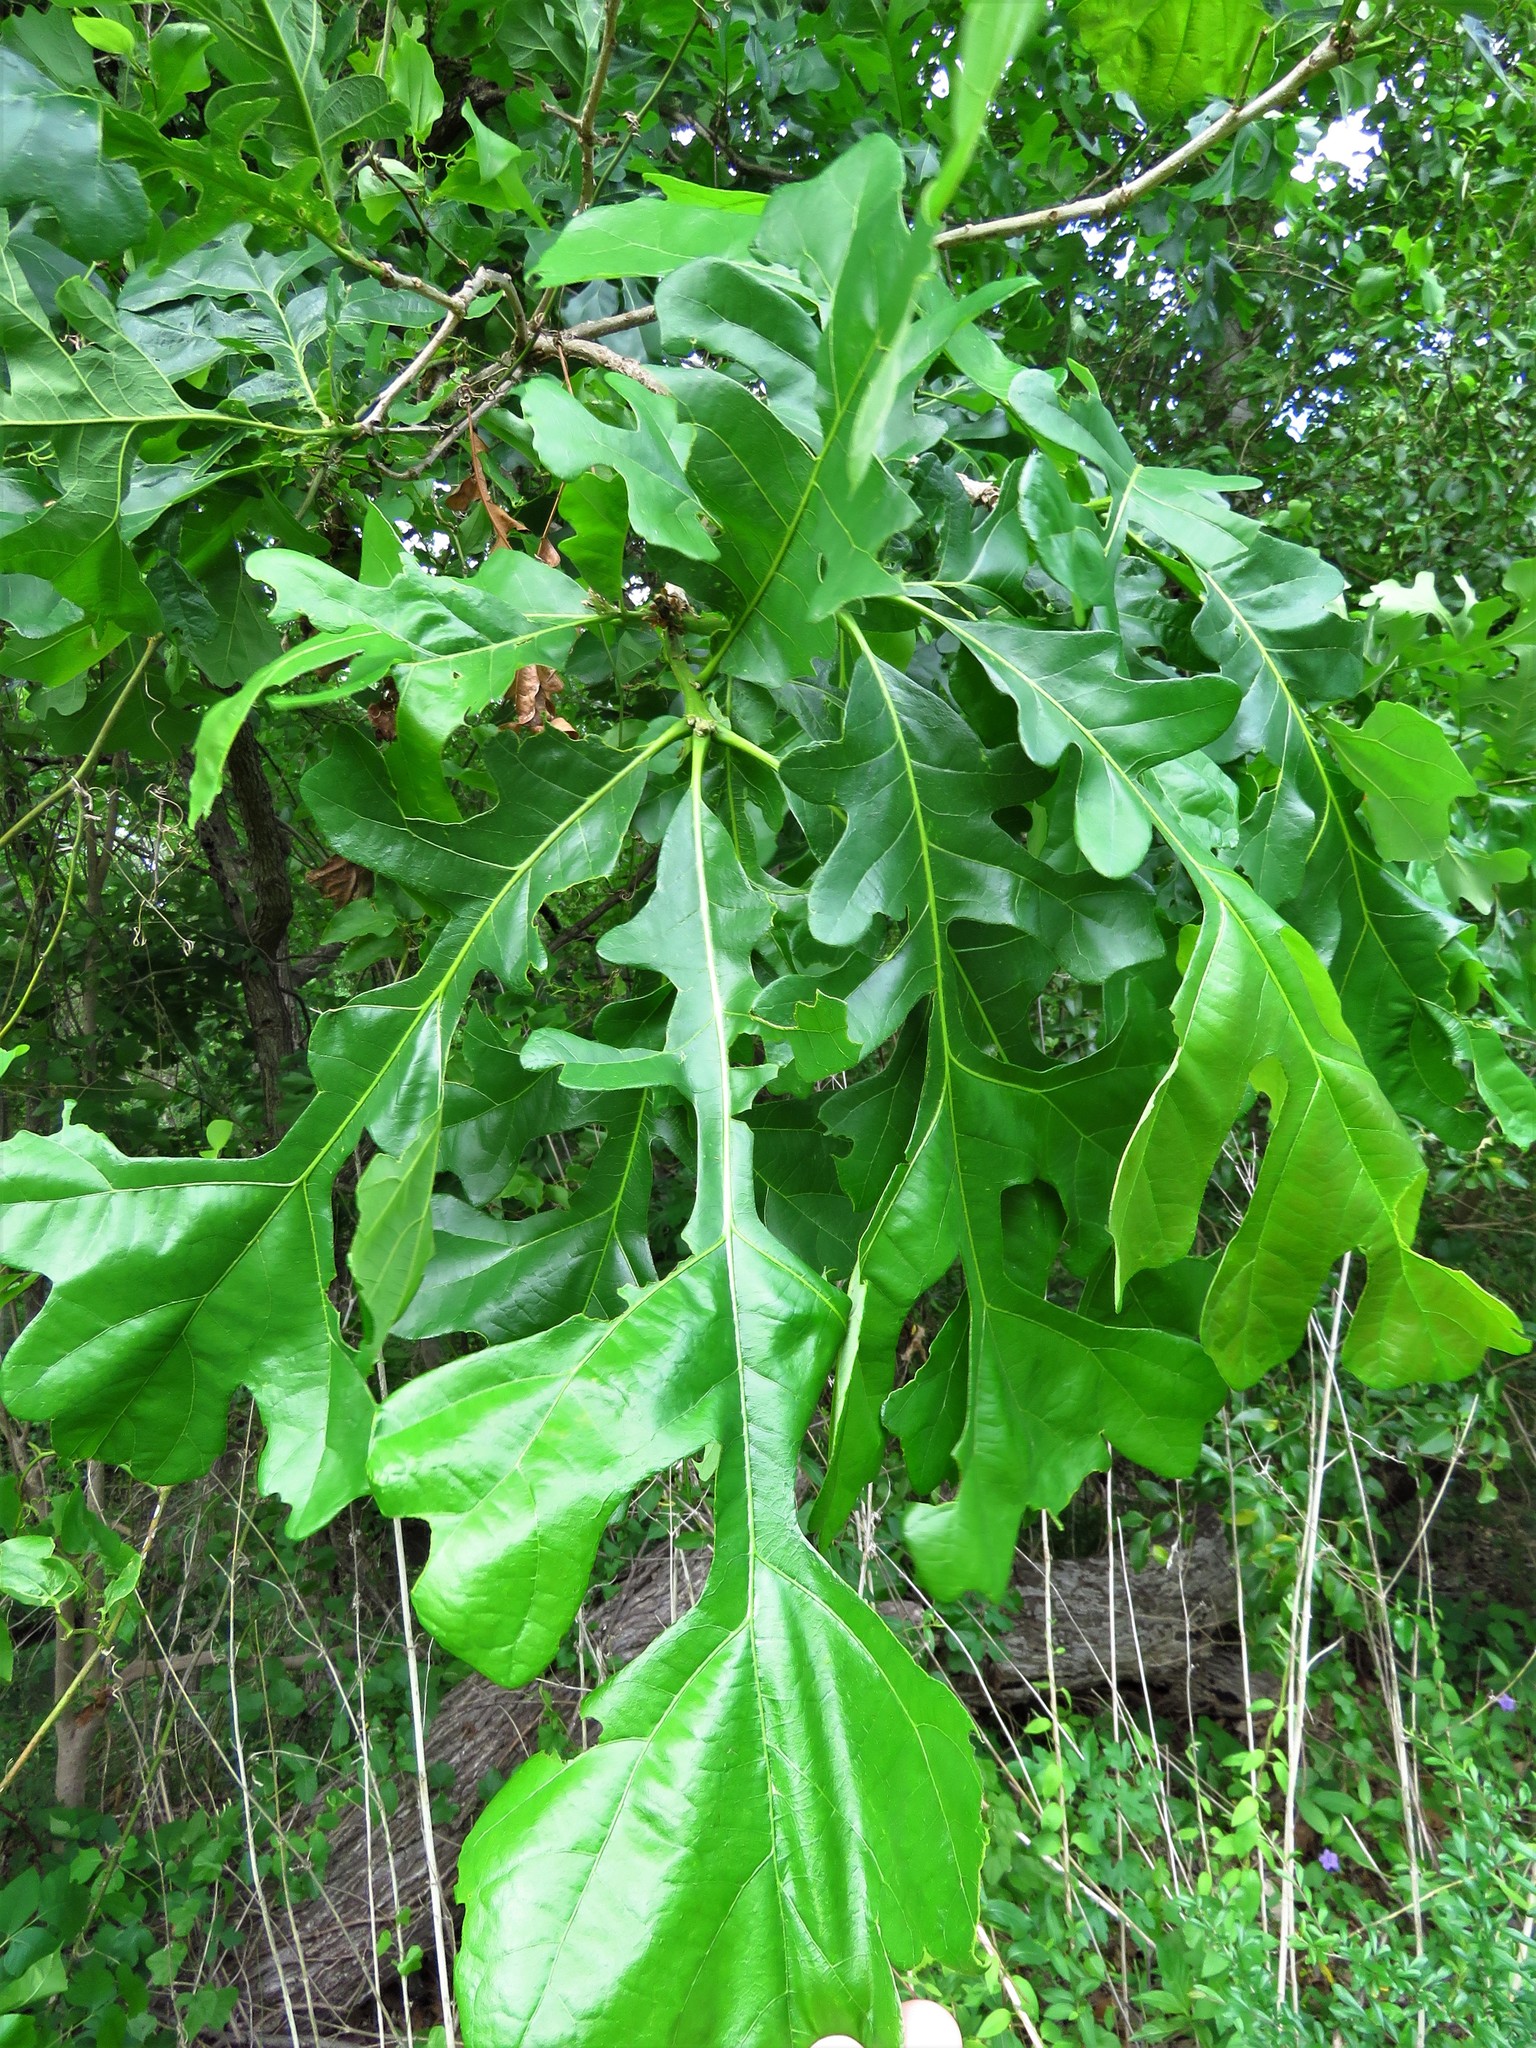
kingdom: Plantae
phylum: Tracheophyta
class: Magnoliopsida
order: Fagales
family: Fagaceae
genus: Quercus
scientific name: Quercus macrocarpa
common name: Bur oak
